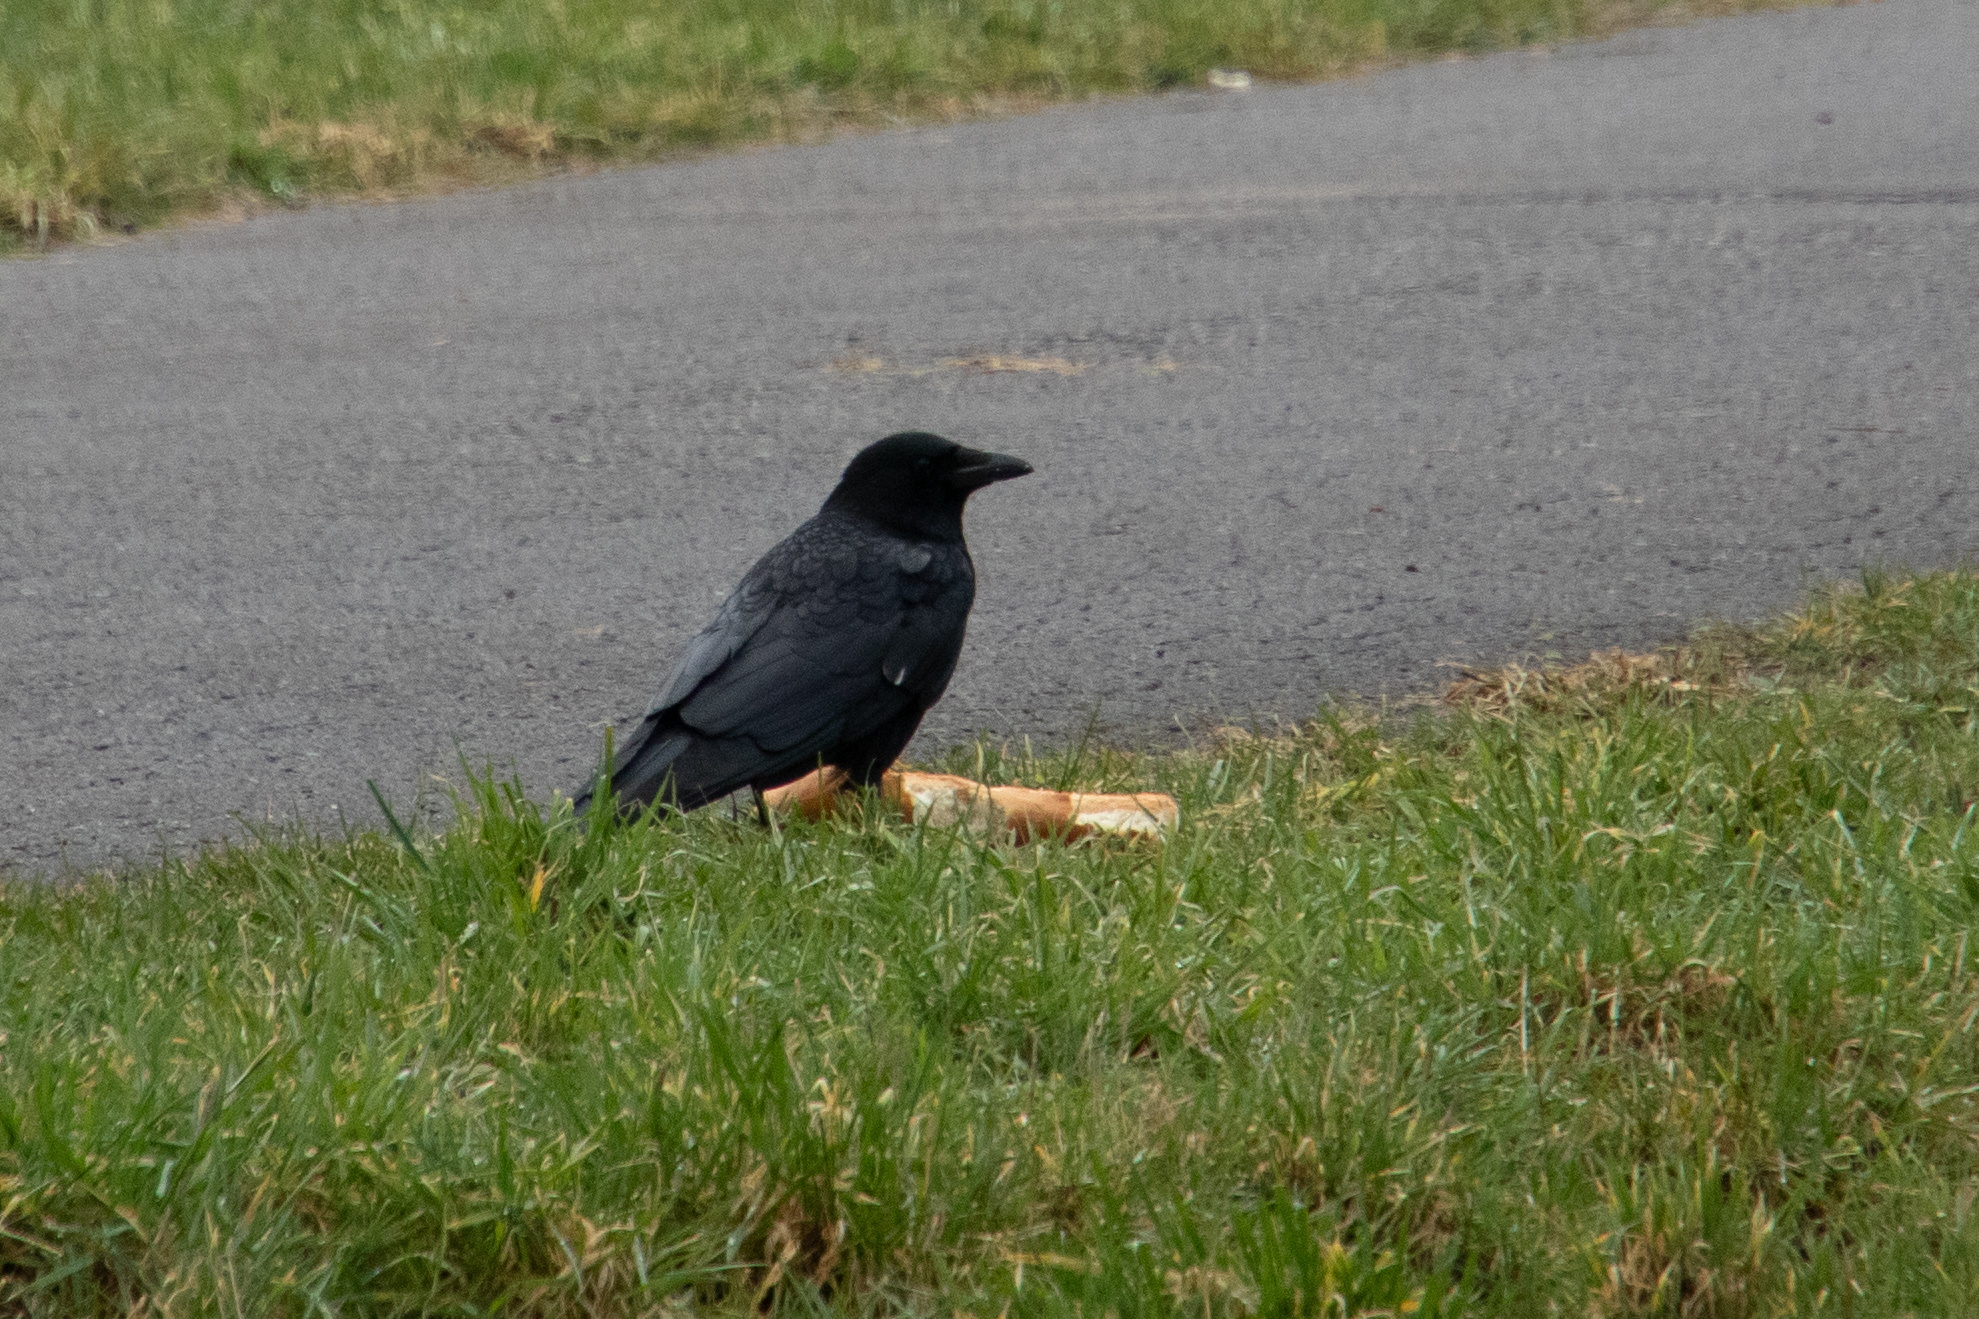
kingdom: Animalia
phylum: Chordata
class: Aves
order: Passeriformes
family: Corvidae
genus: Corvus
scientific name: Corvus corone
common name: Carrion crow
